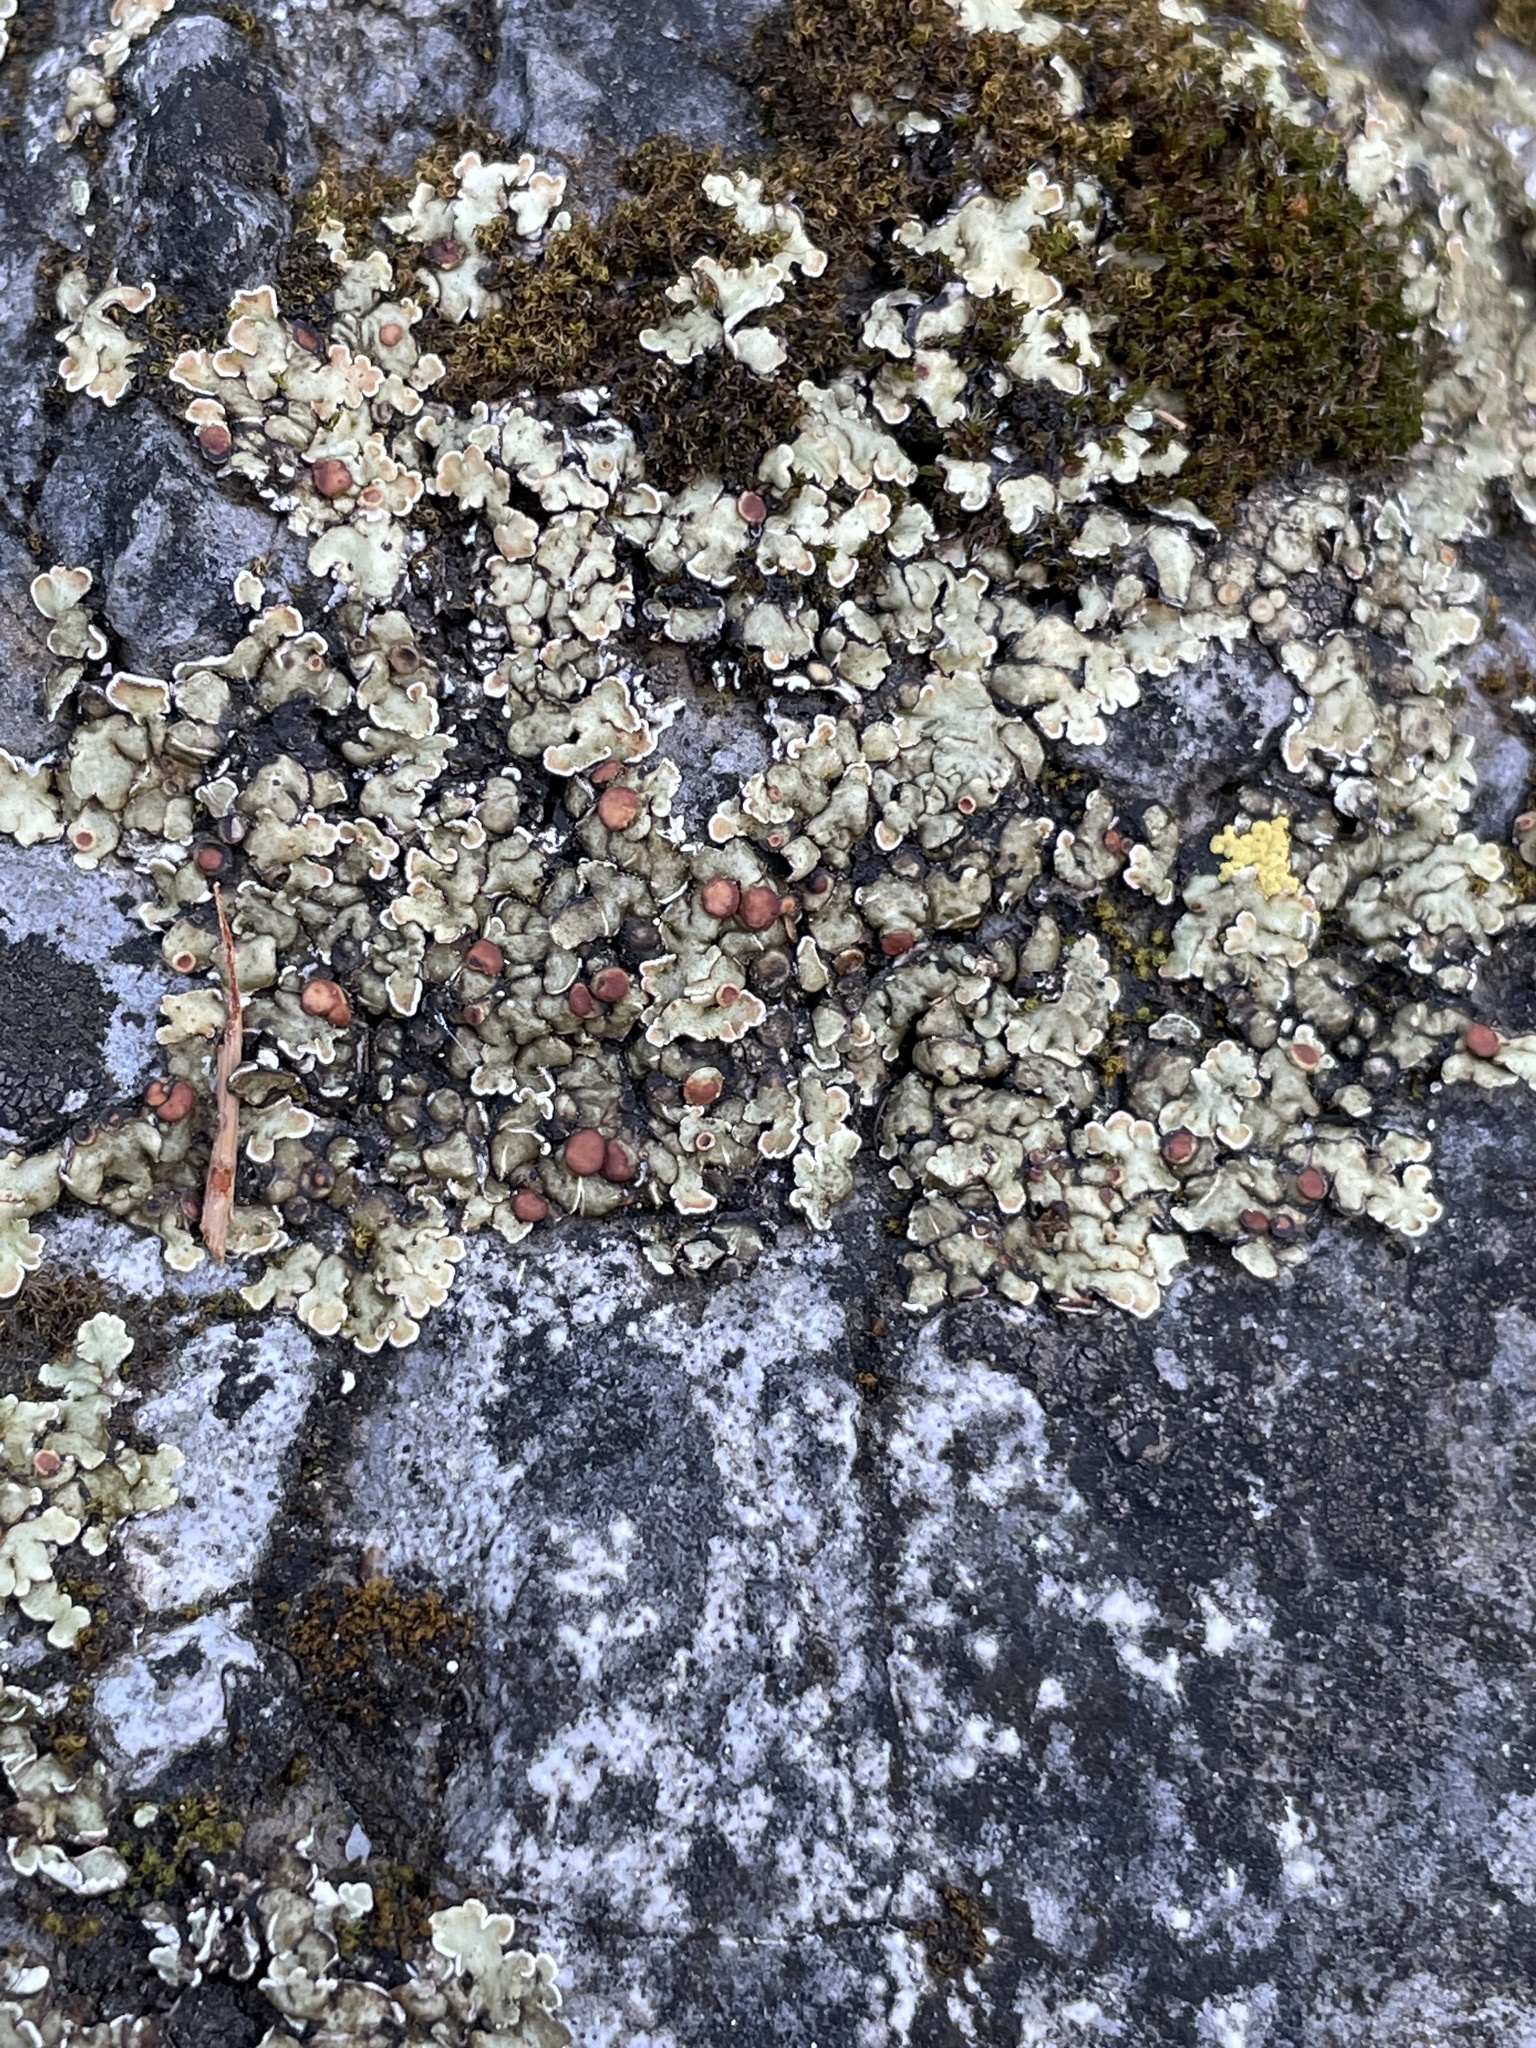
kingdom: Fungi
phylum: Ascomycota
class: Lecanoromycetes
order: Lecanorales
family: Stereocaulaceae
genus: Squamarina
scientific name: Squamarina cartilaginea
